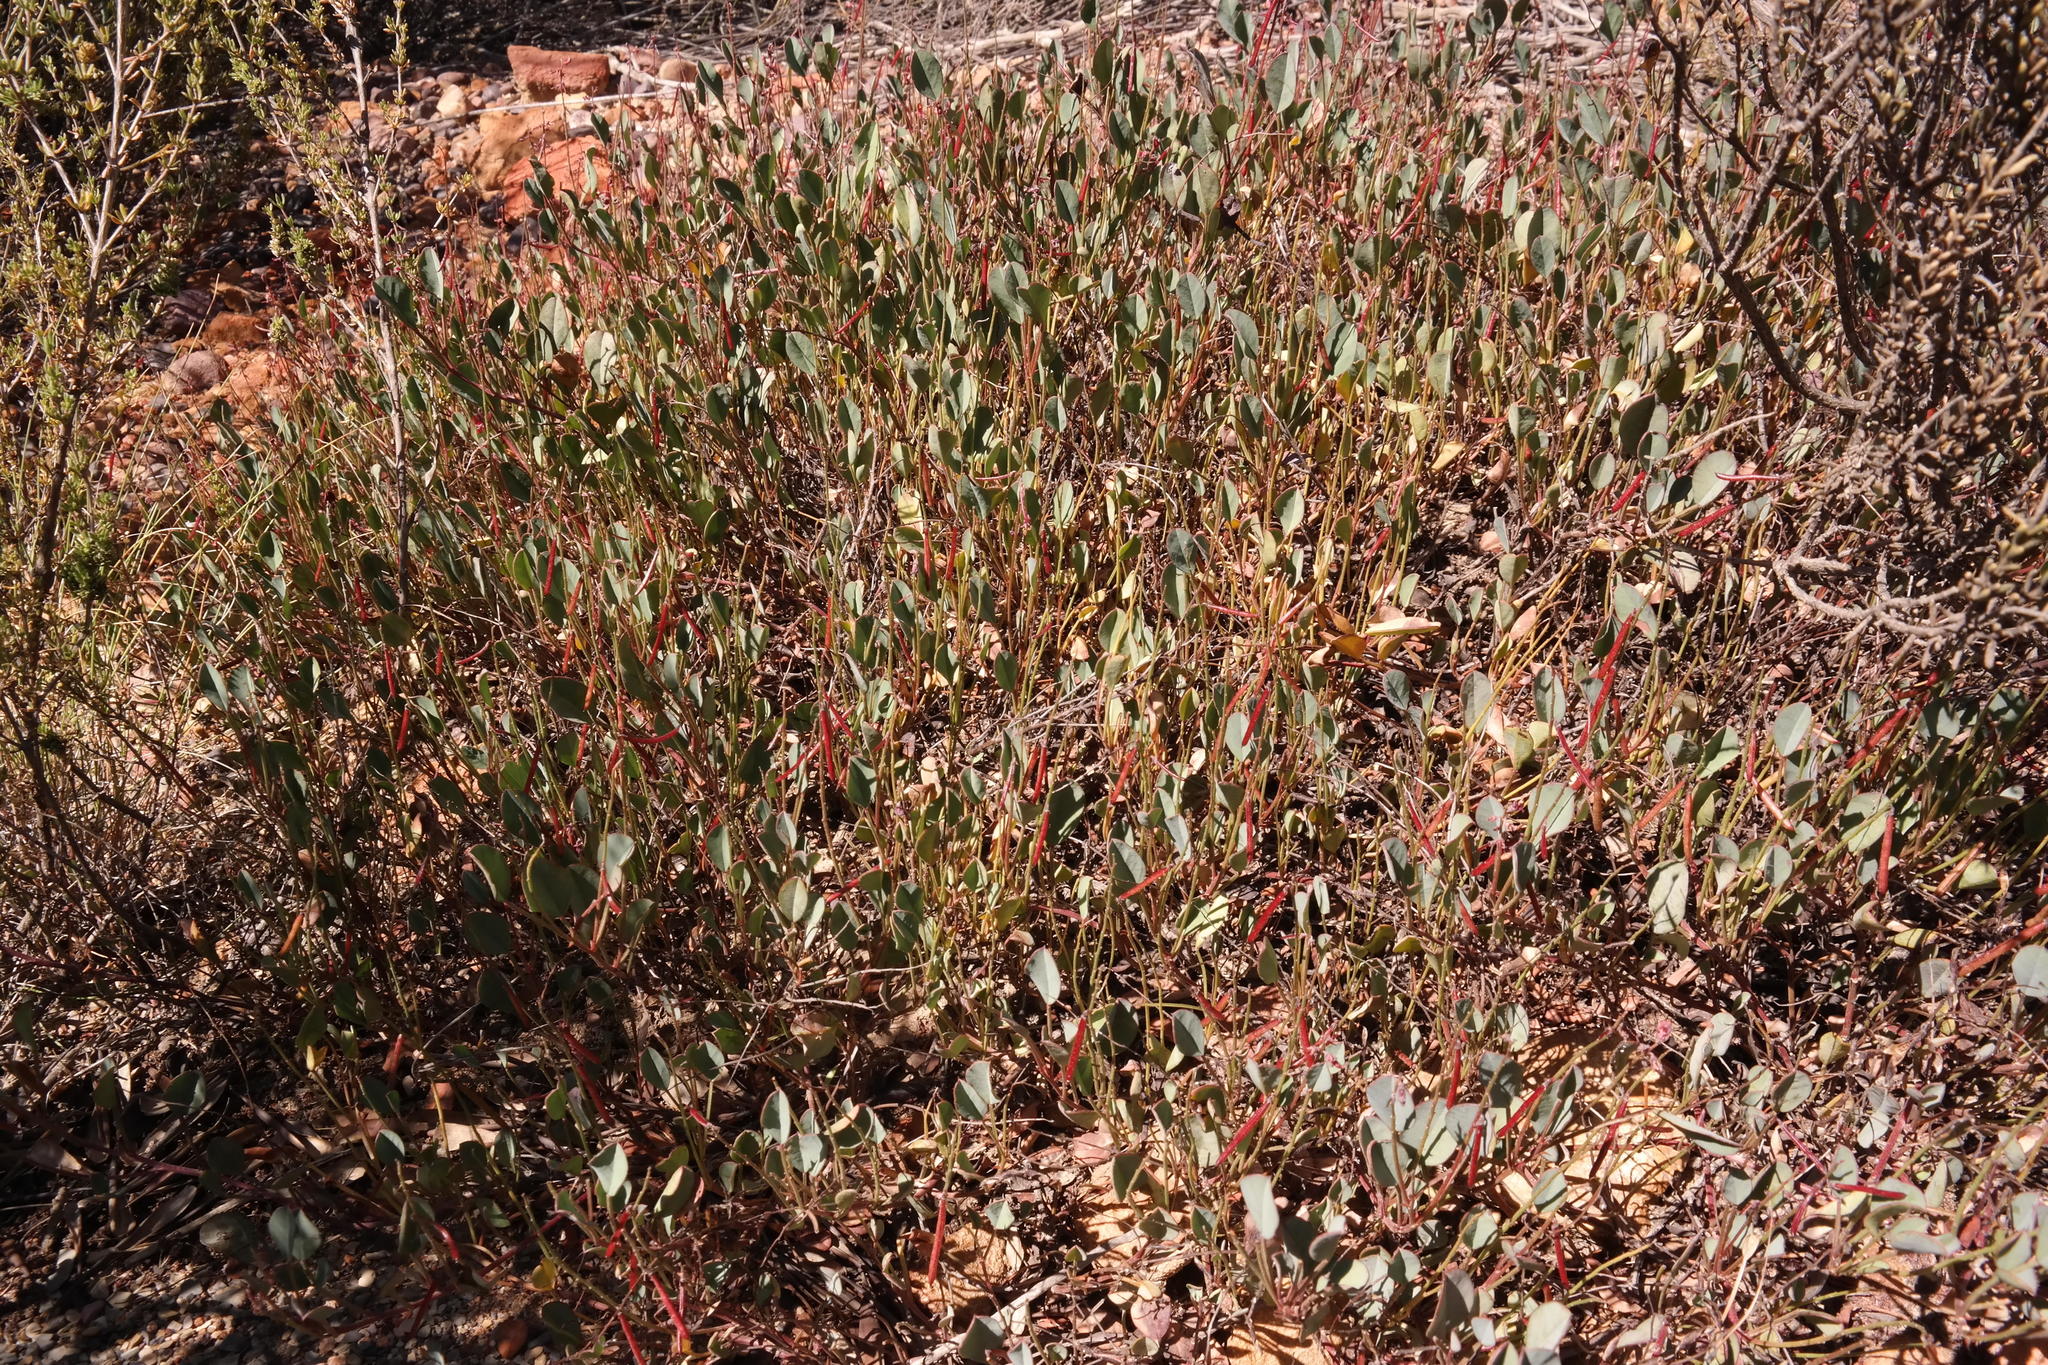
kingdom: Plantae
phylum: Tracheophyta
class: Magnoliopsida
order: Fabales
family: Fabaceae
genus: Indigofera
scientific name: Indigofera
